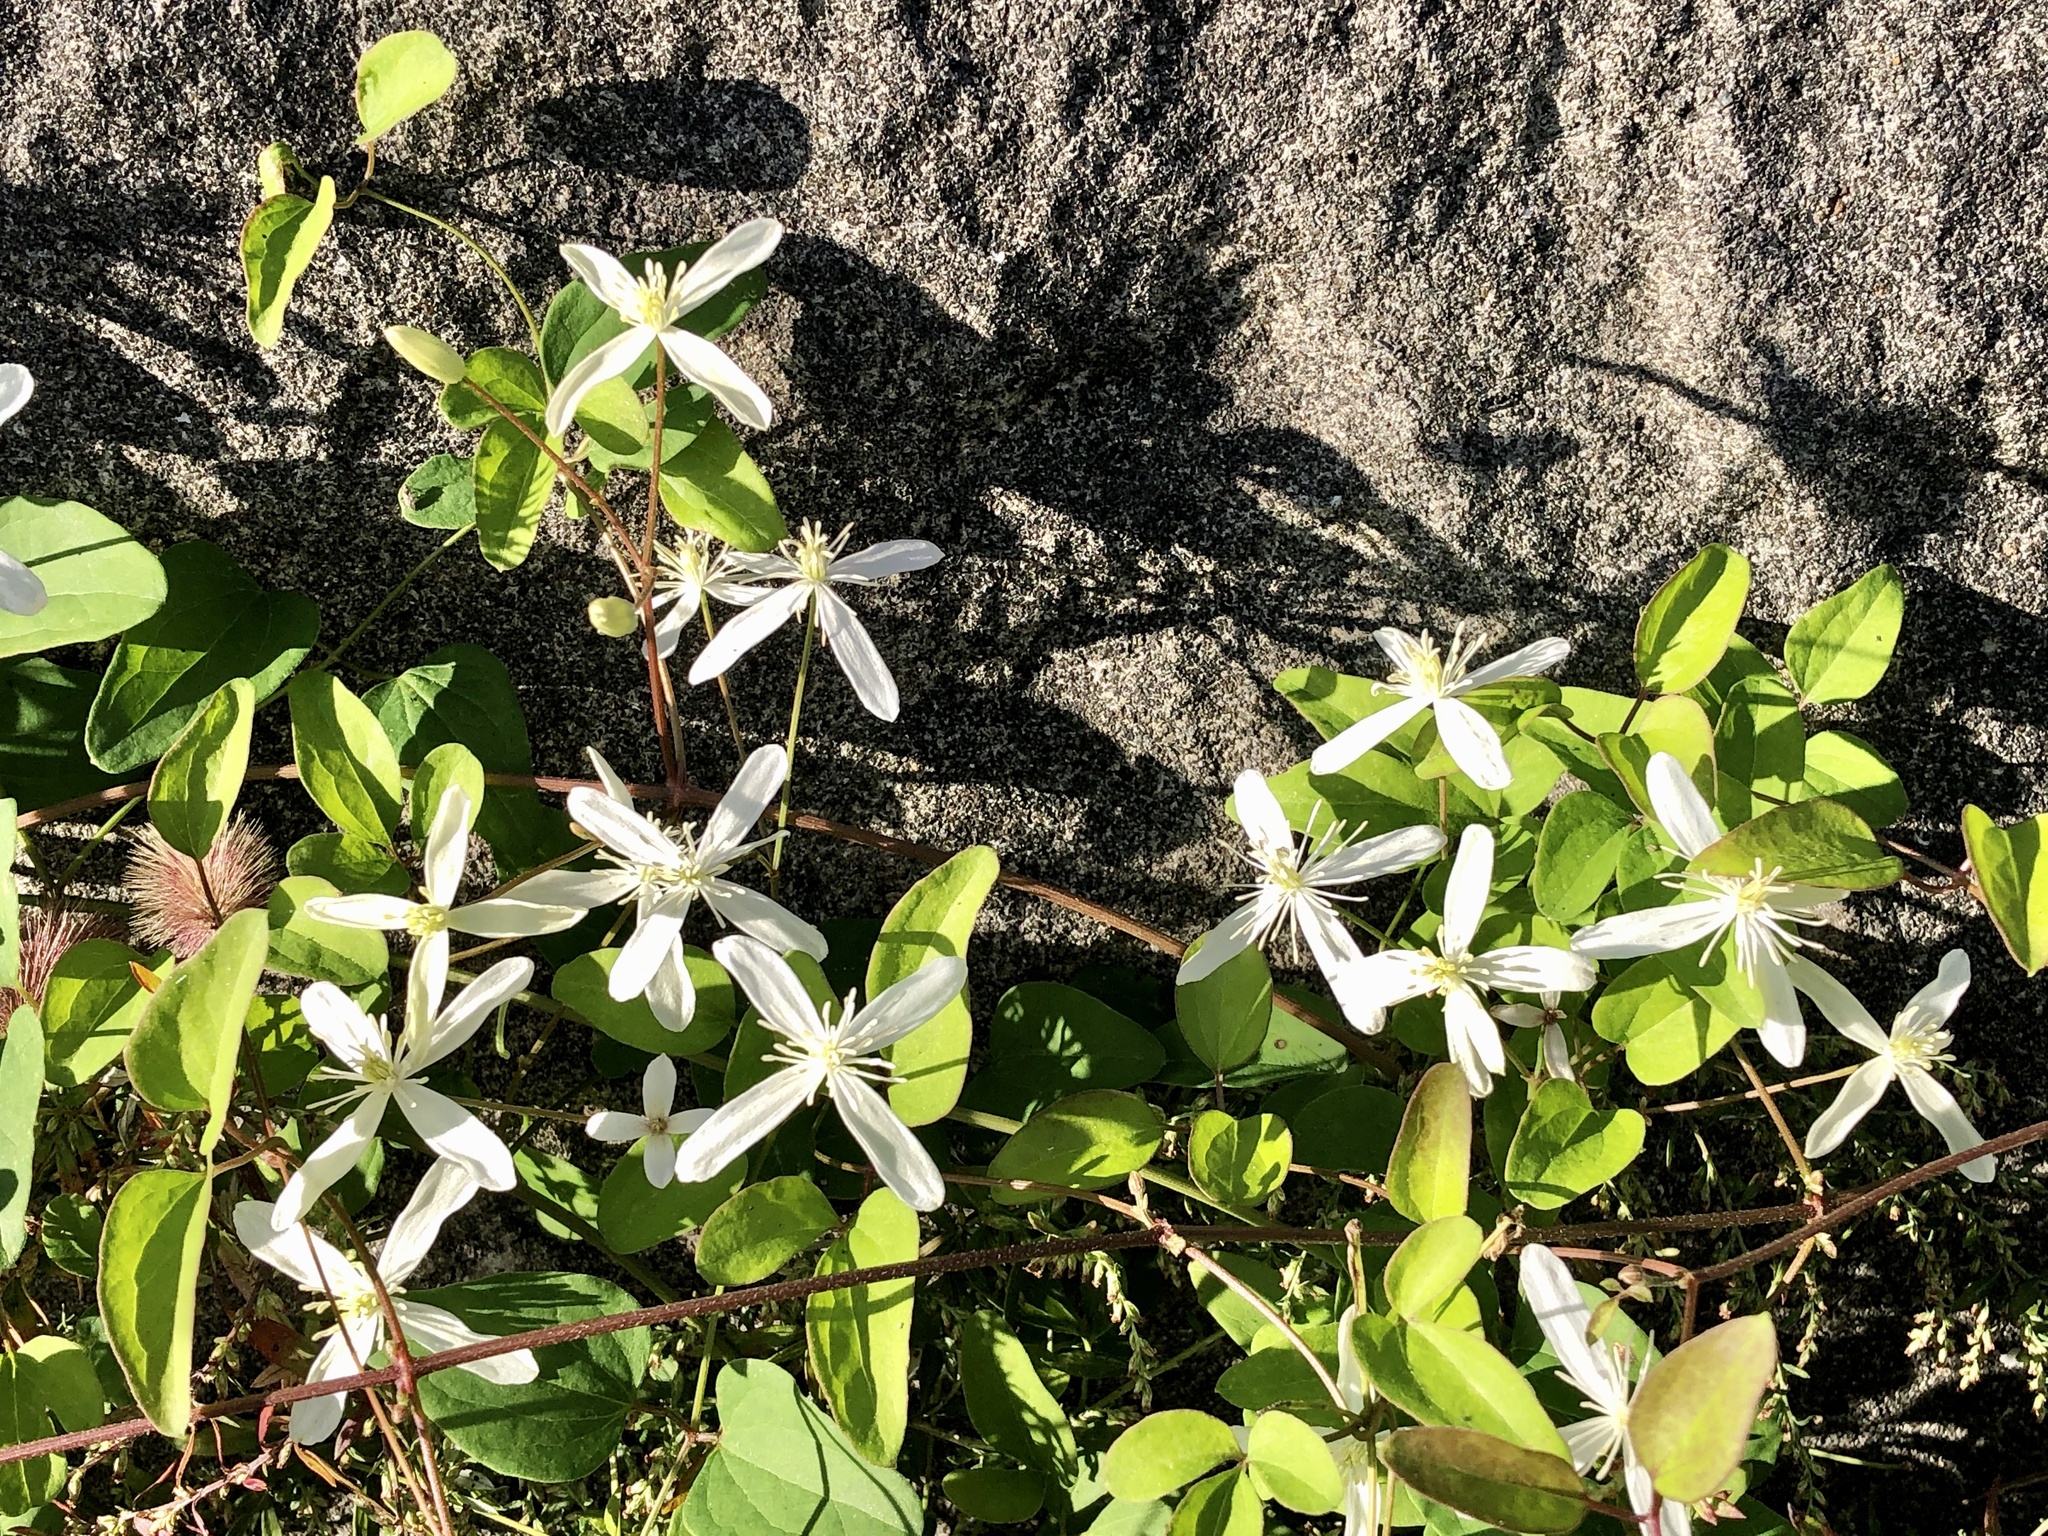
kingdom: Plantae
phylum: Tracheophyta
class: Magnoliopsida
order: Ranunculales
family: Ranunculaceae
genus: Clematis
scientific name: Clematis terniflora
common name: Sweet autumn clematis
